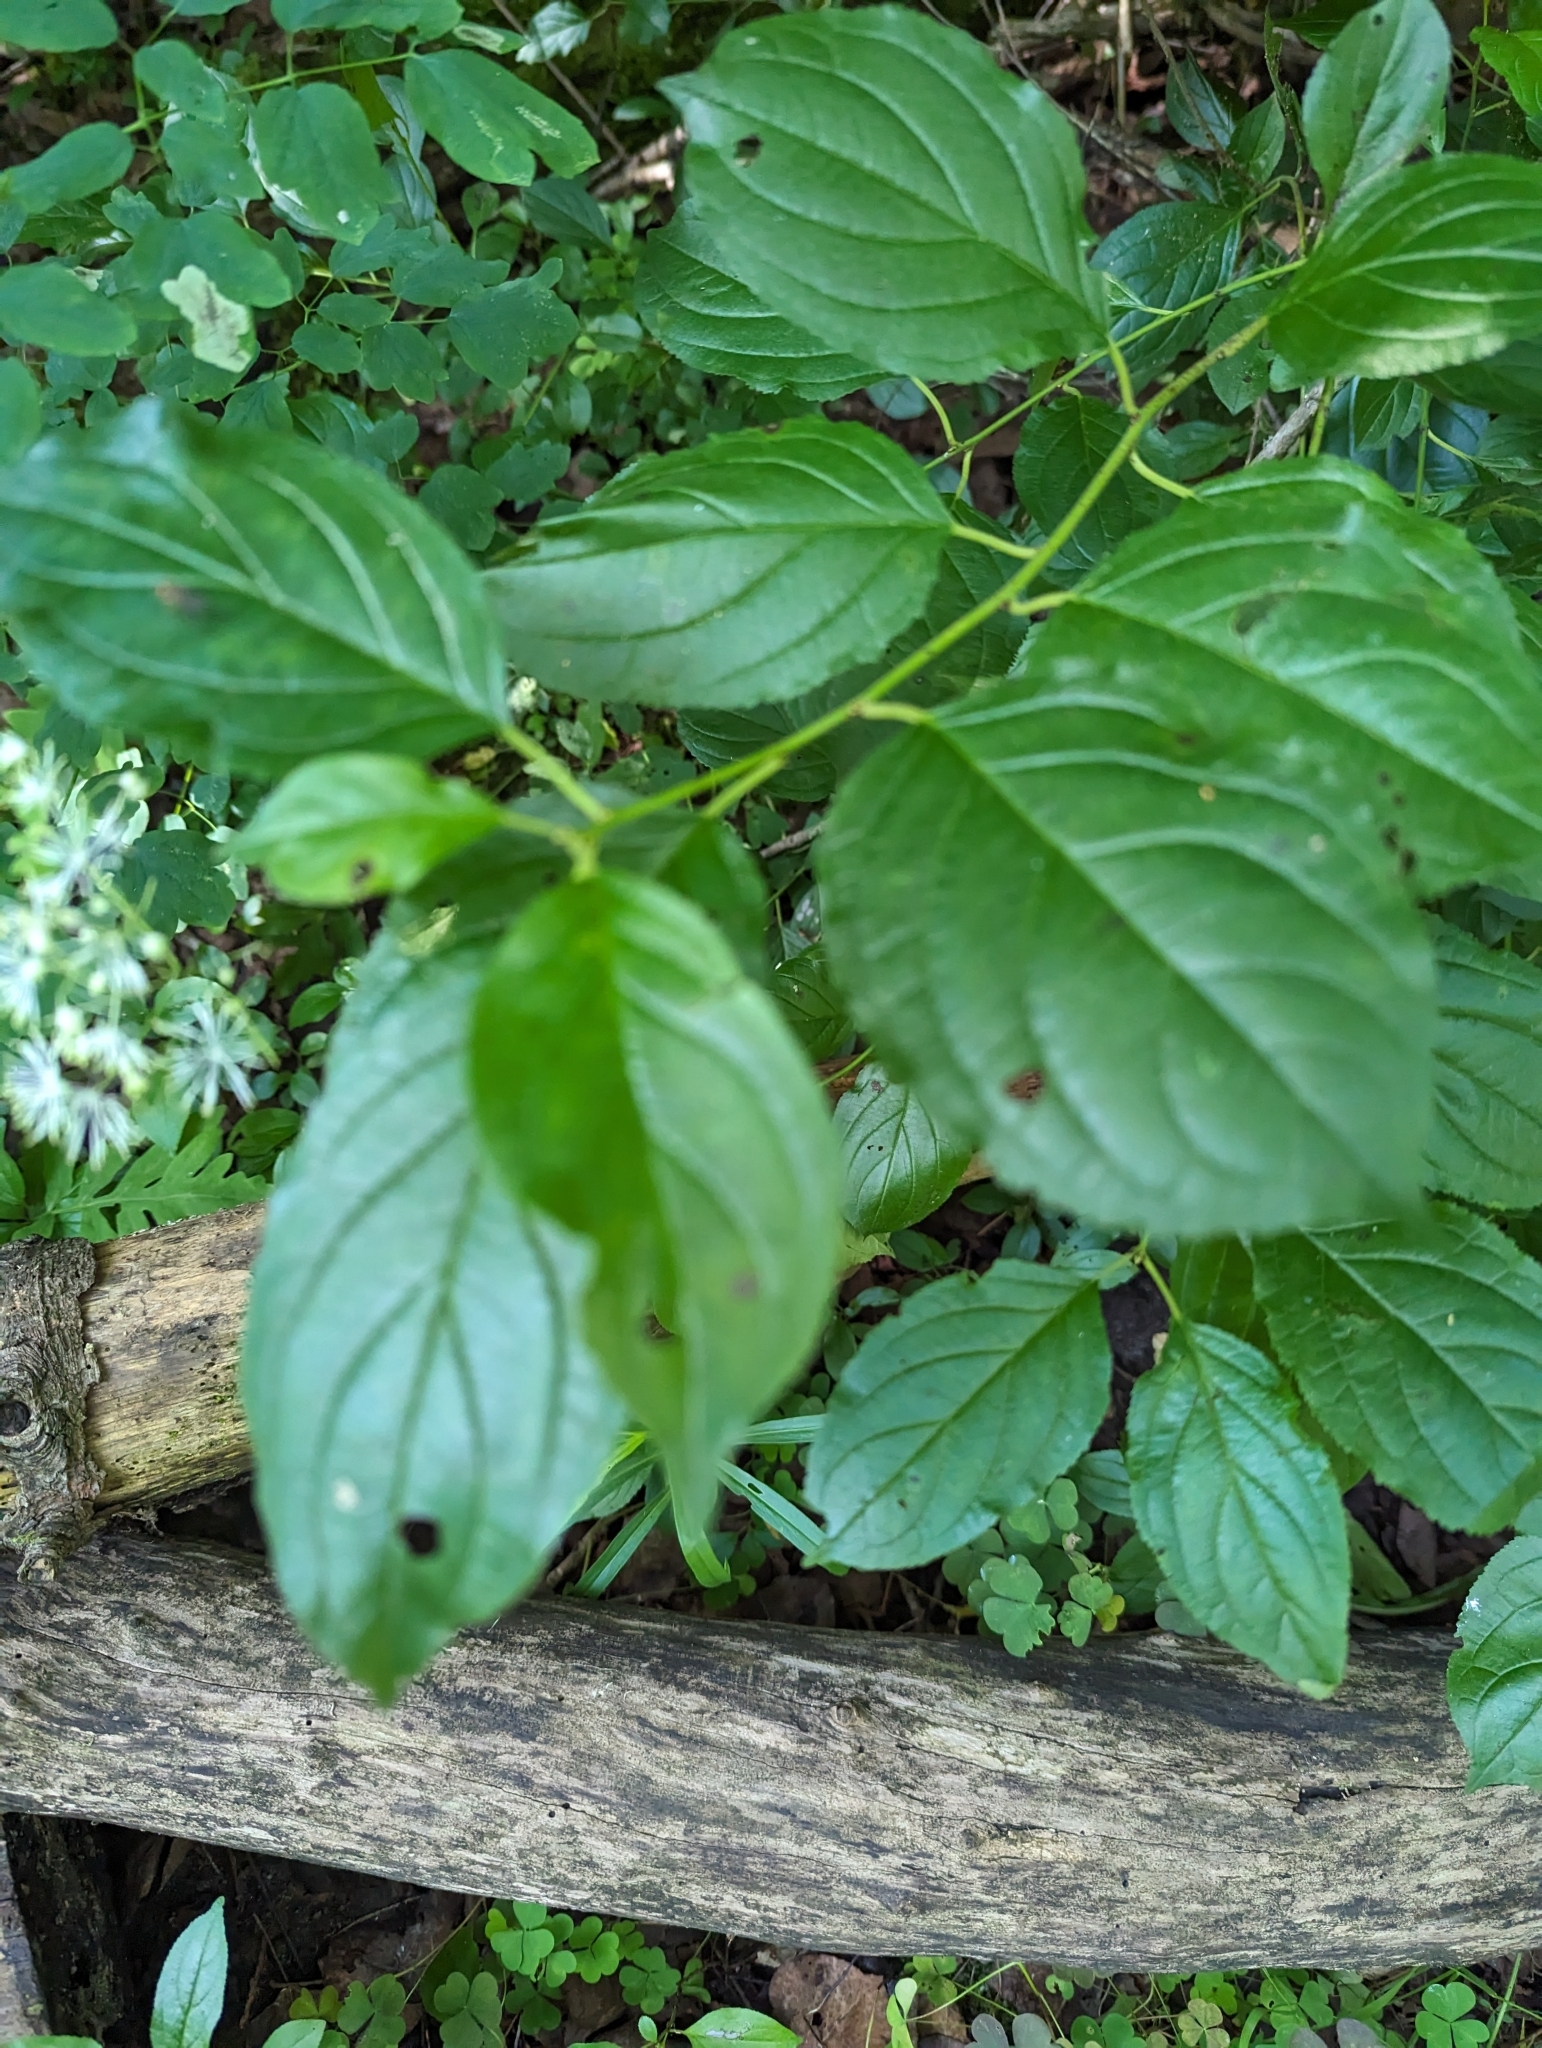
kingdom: Plantae
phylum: Tracheophyta
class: Magnoliopsida
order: Rosales
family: Rhamnaceae
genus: Rhamnus
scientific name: Rhamnus cathartica
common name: Common buckthorn
